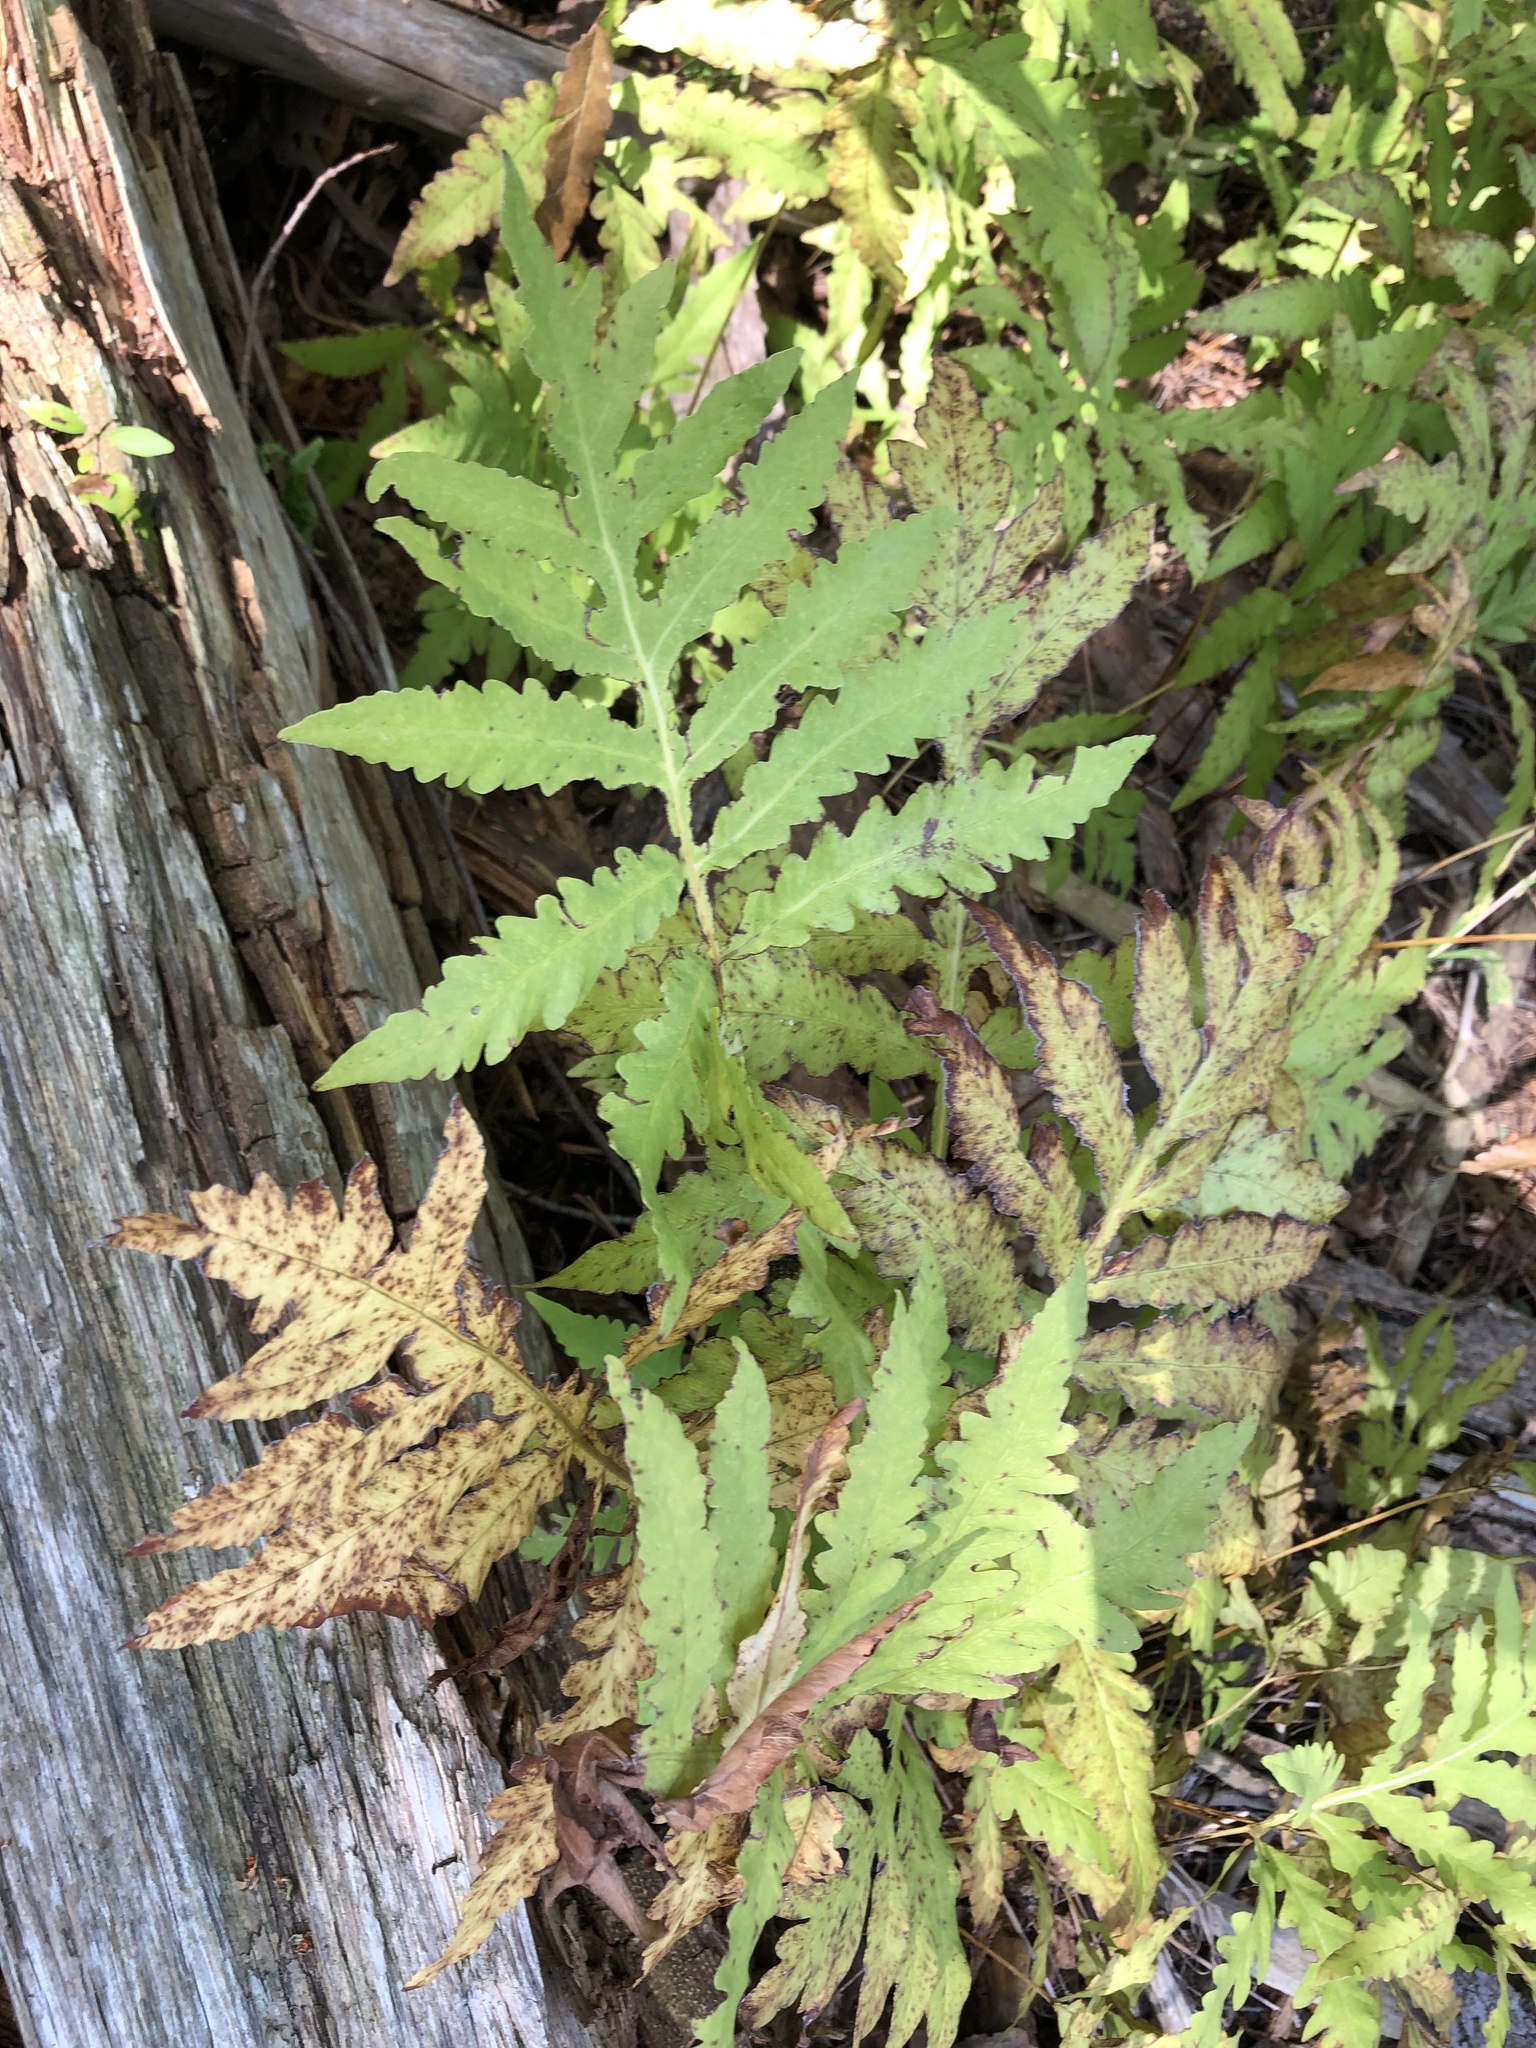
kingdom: Plantae
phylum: Tracheophyta
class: Polypodiopsida
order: Polypodiales
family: Onocleaceae
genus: Onoclea
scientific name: Onoclea sensibilis
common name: Sensitive fern
